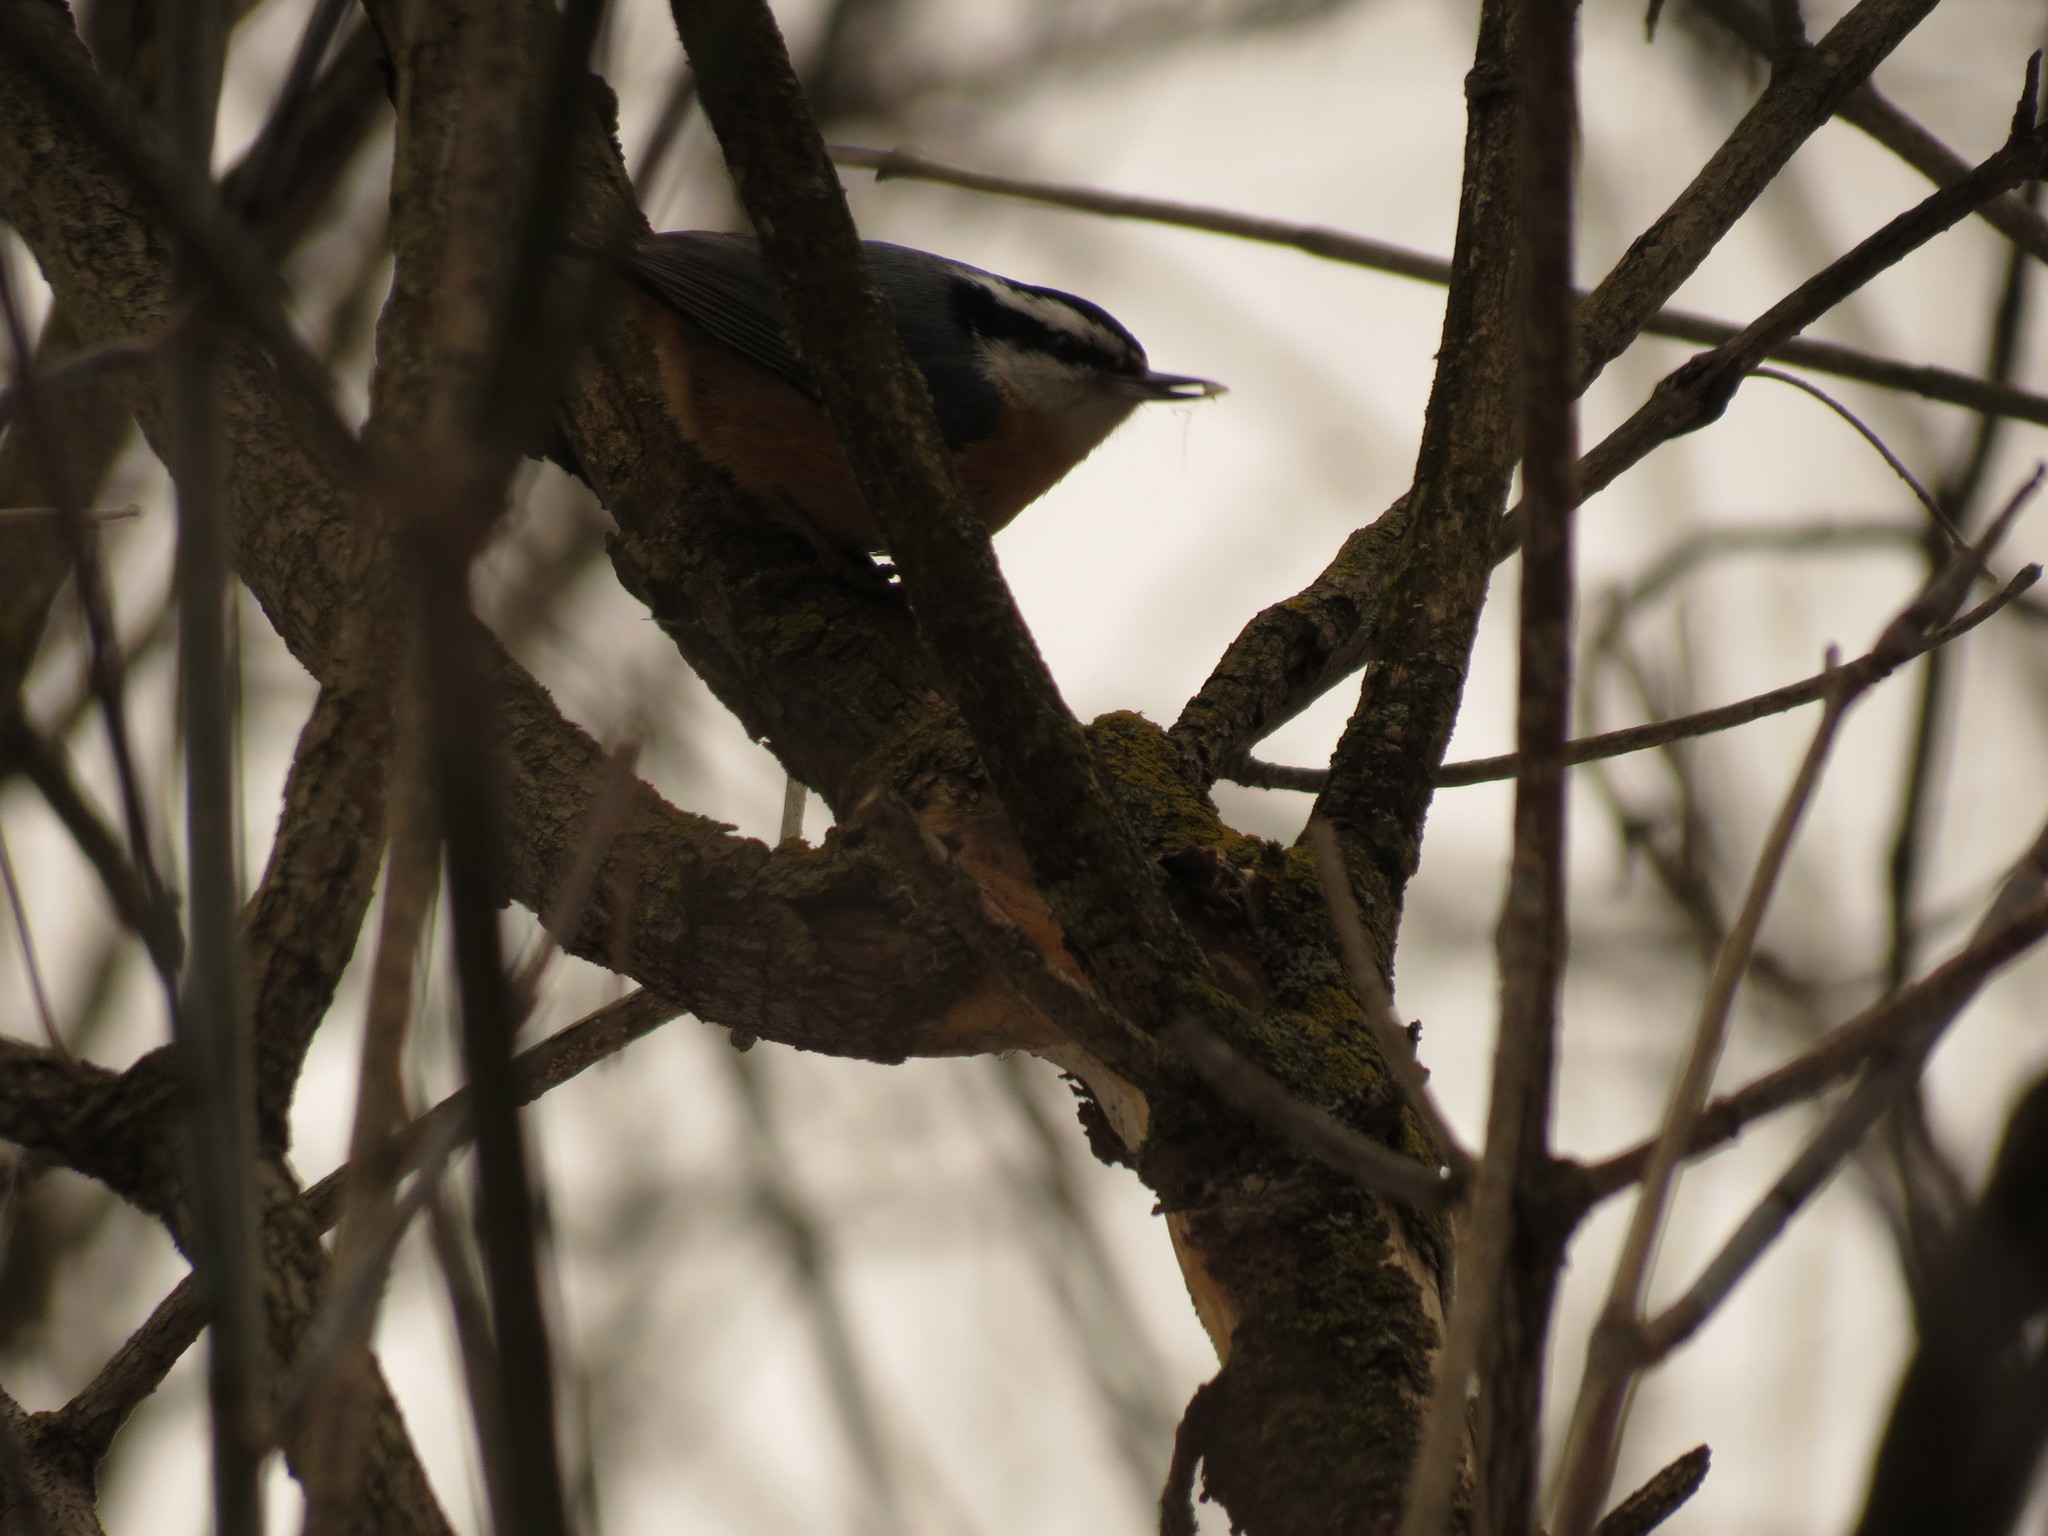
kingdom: Animalia
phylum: Chordata
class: Aves
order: Passeriformes
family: Sittidae
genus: Sitta
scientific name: Sitta canadensis
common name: Red-breasted nuthatch
